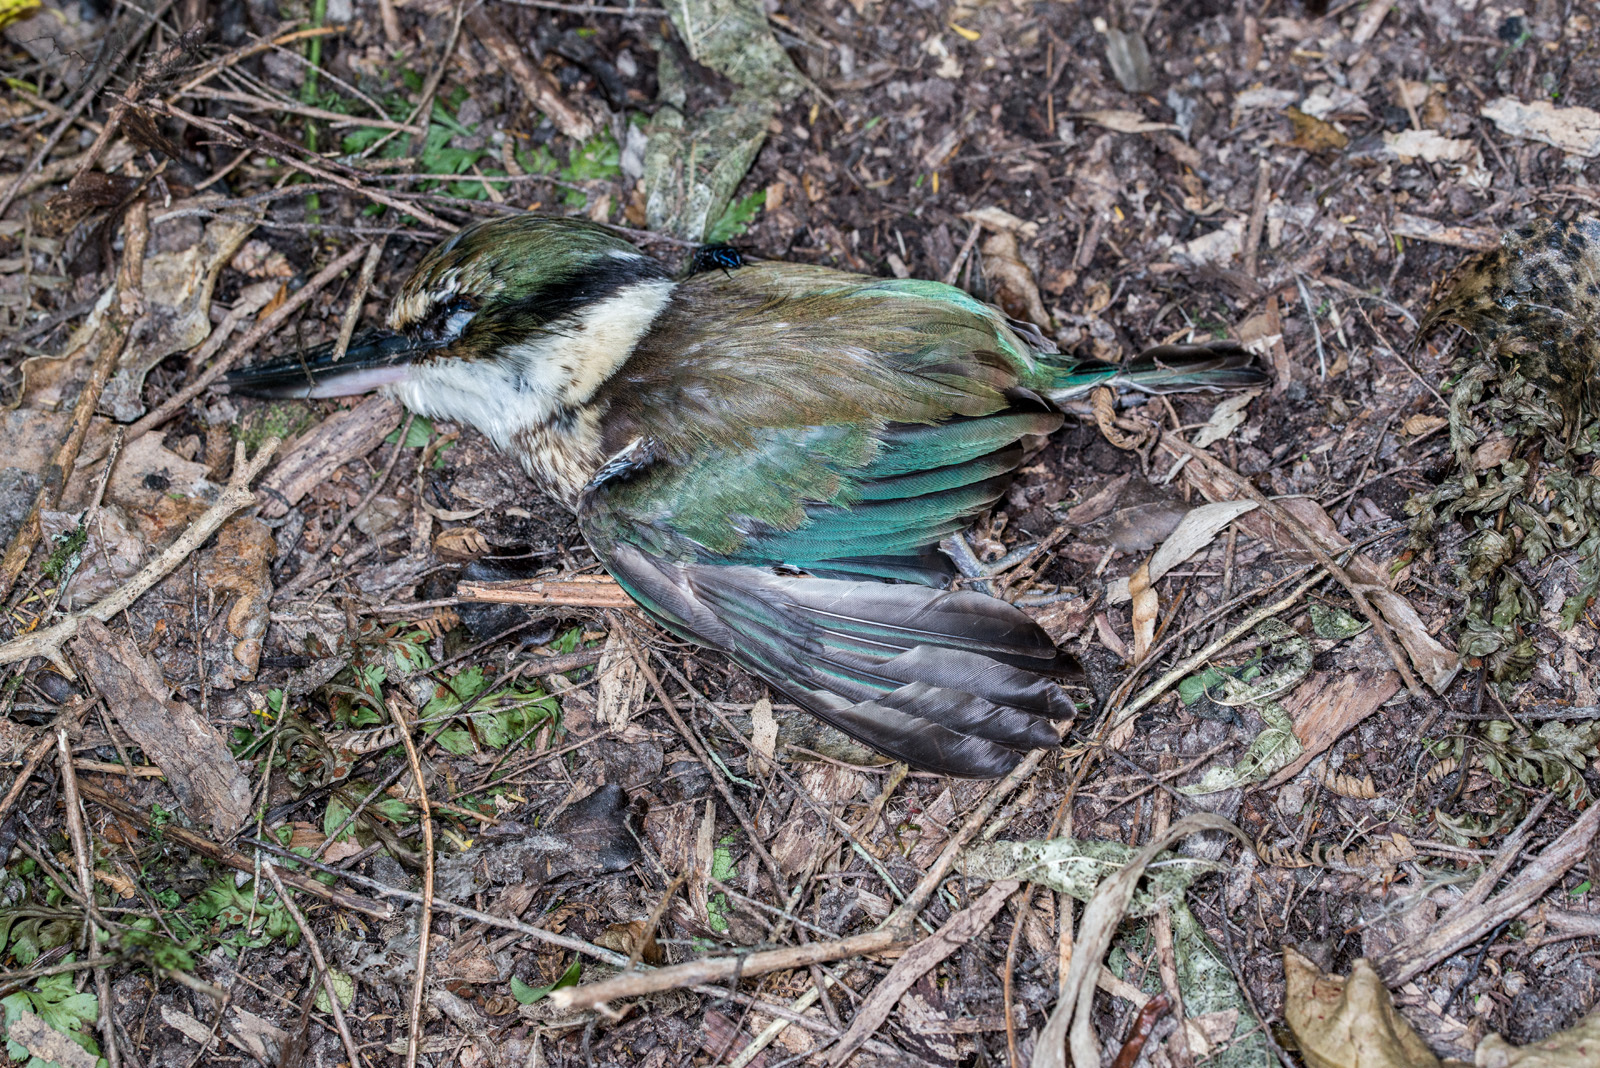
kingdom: Animalia
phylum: Chordata
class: Aves
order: Coraciiformes
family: Alcedinidae
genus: Todiramphus
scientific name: Todiramphus sanctus
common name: Sacred kingfisher
